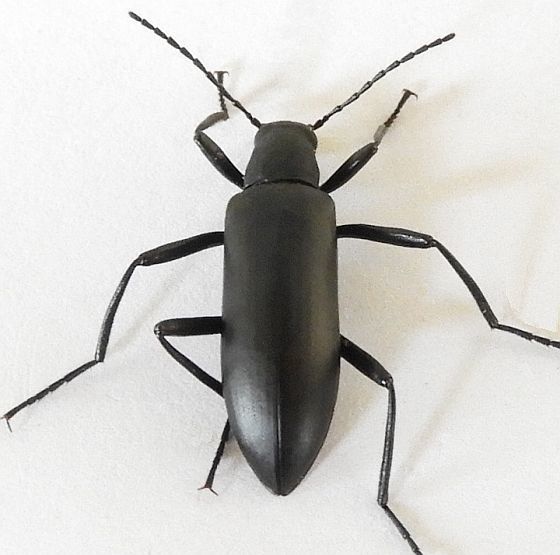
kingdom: Animalia
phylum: Arthropoda
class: Insecta
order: Coleoptera
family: Tenebrionidae
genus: Strongylium
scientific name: Strongylium atrum
